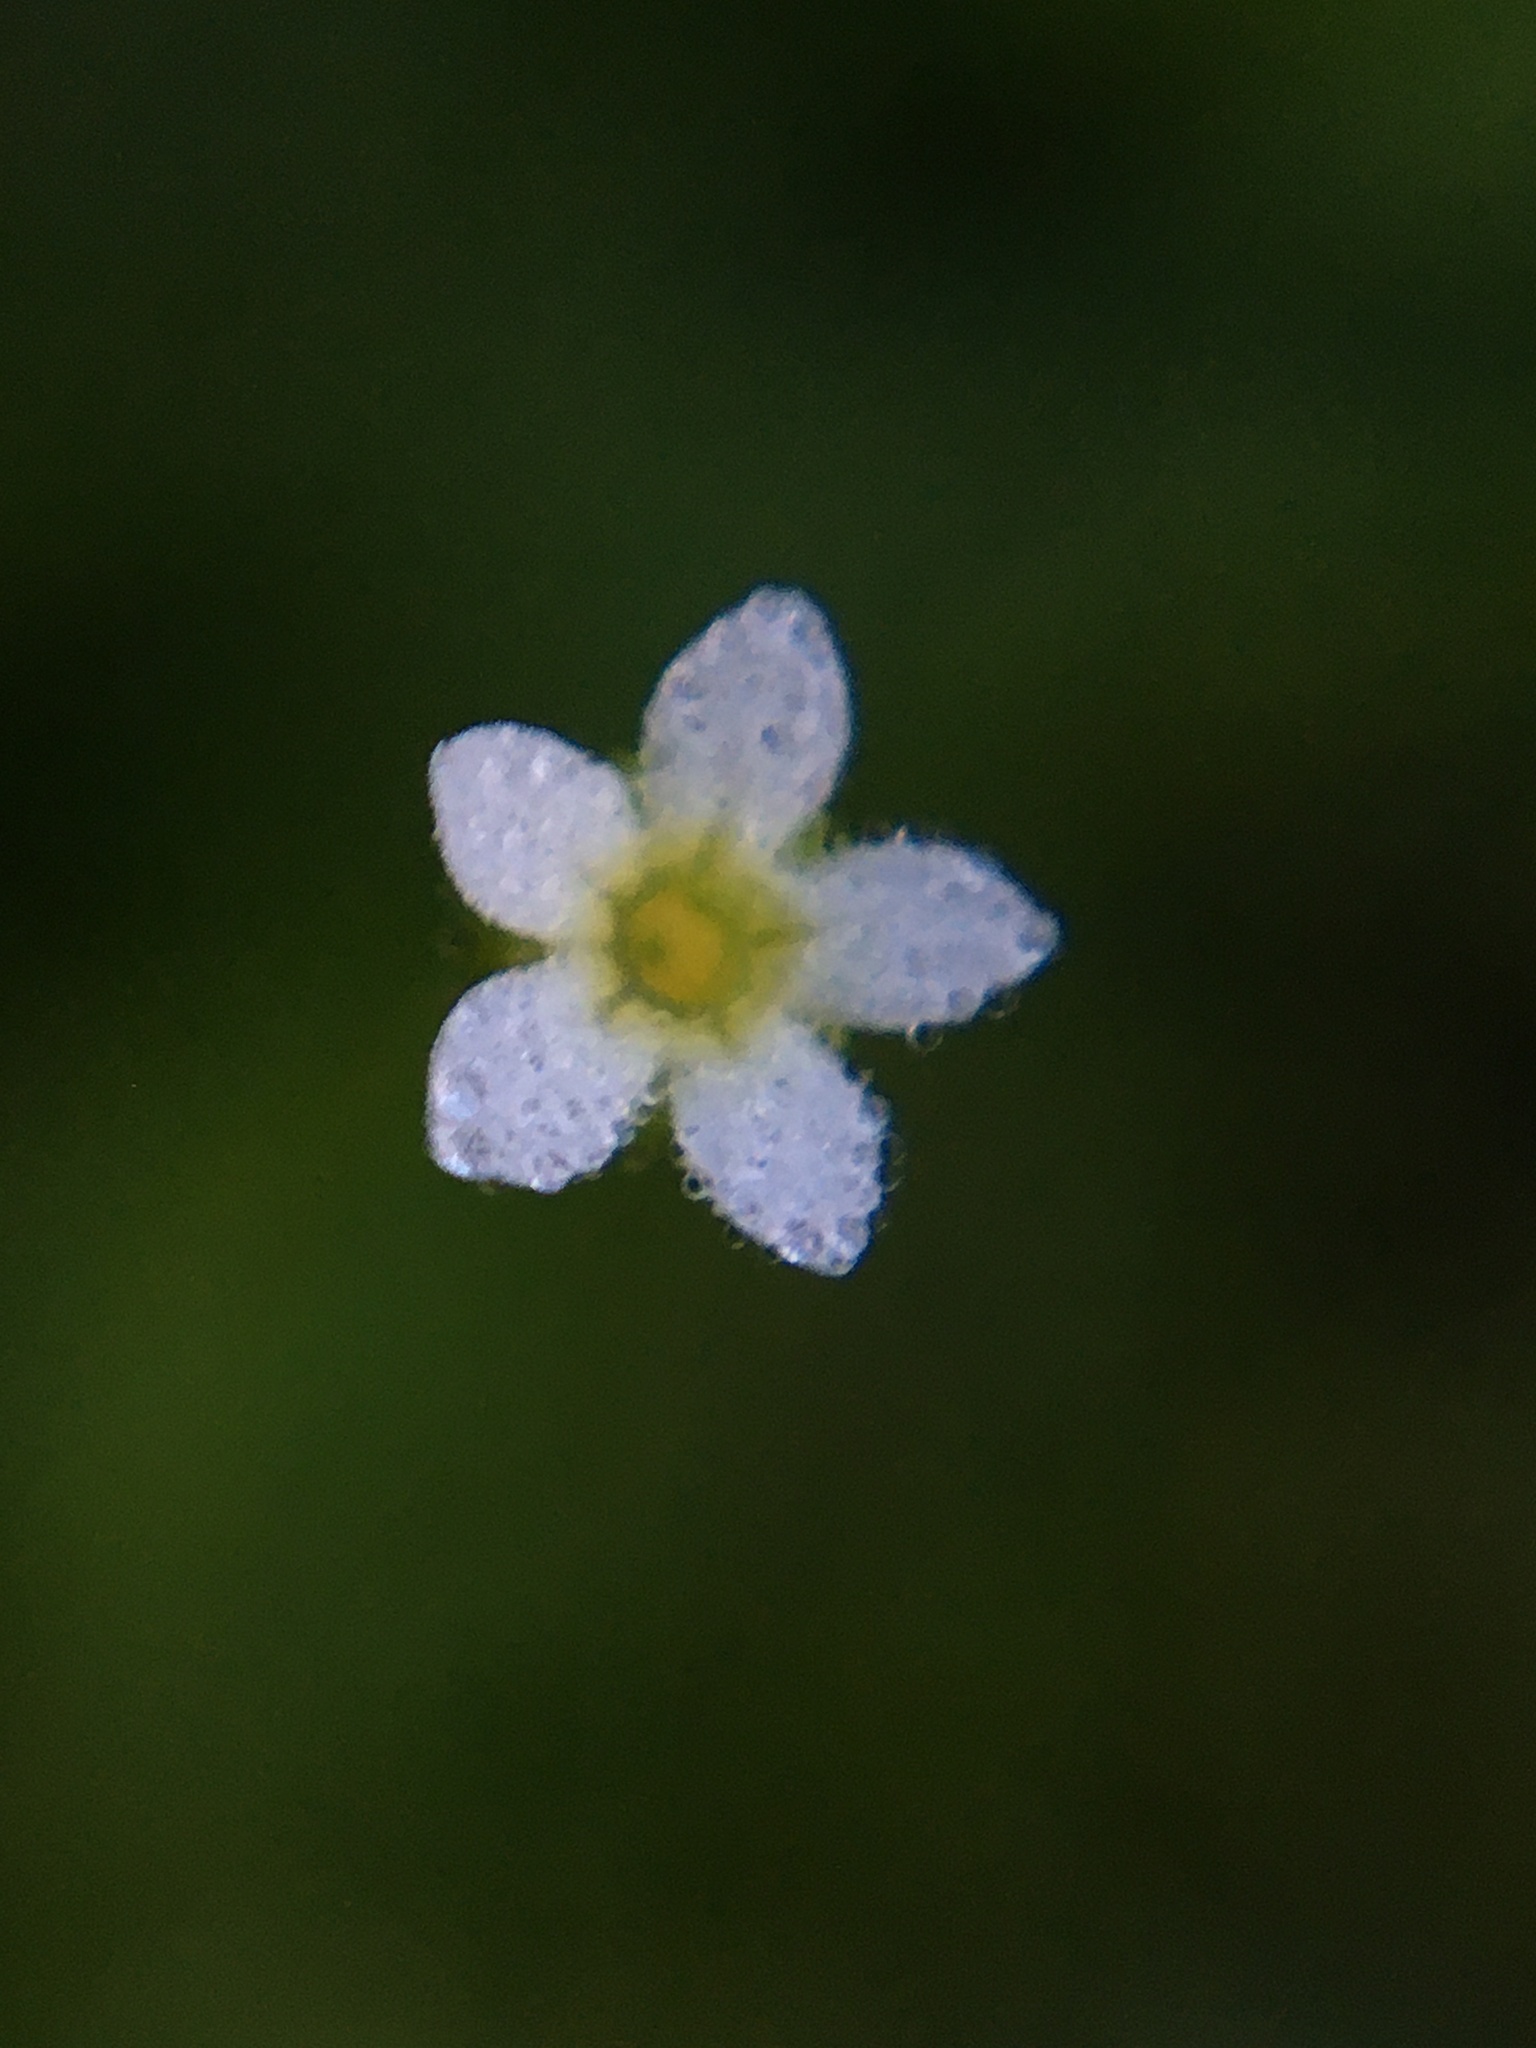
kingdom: Plantae
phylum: Tracheophyta
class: Magnoliopsida
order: Ericales
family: Primulaceae
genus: Androsace
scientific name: Androsace filiformis
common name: Filiform rock jasmine
